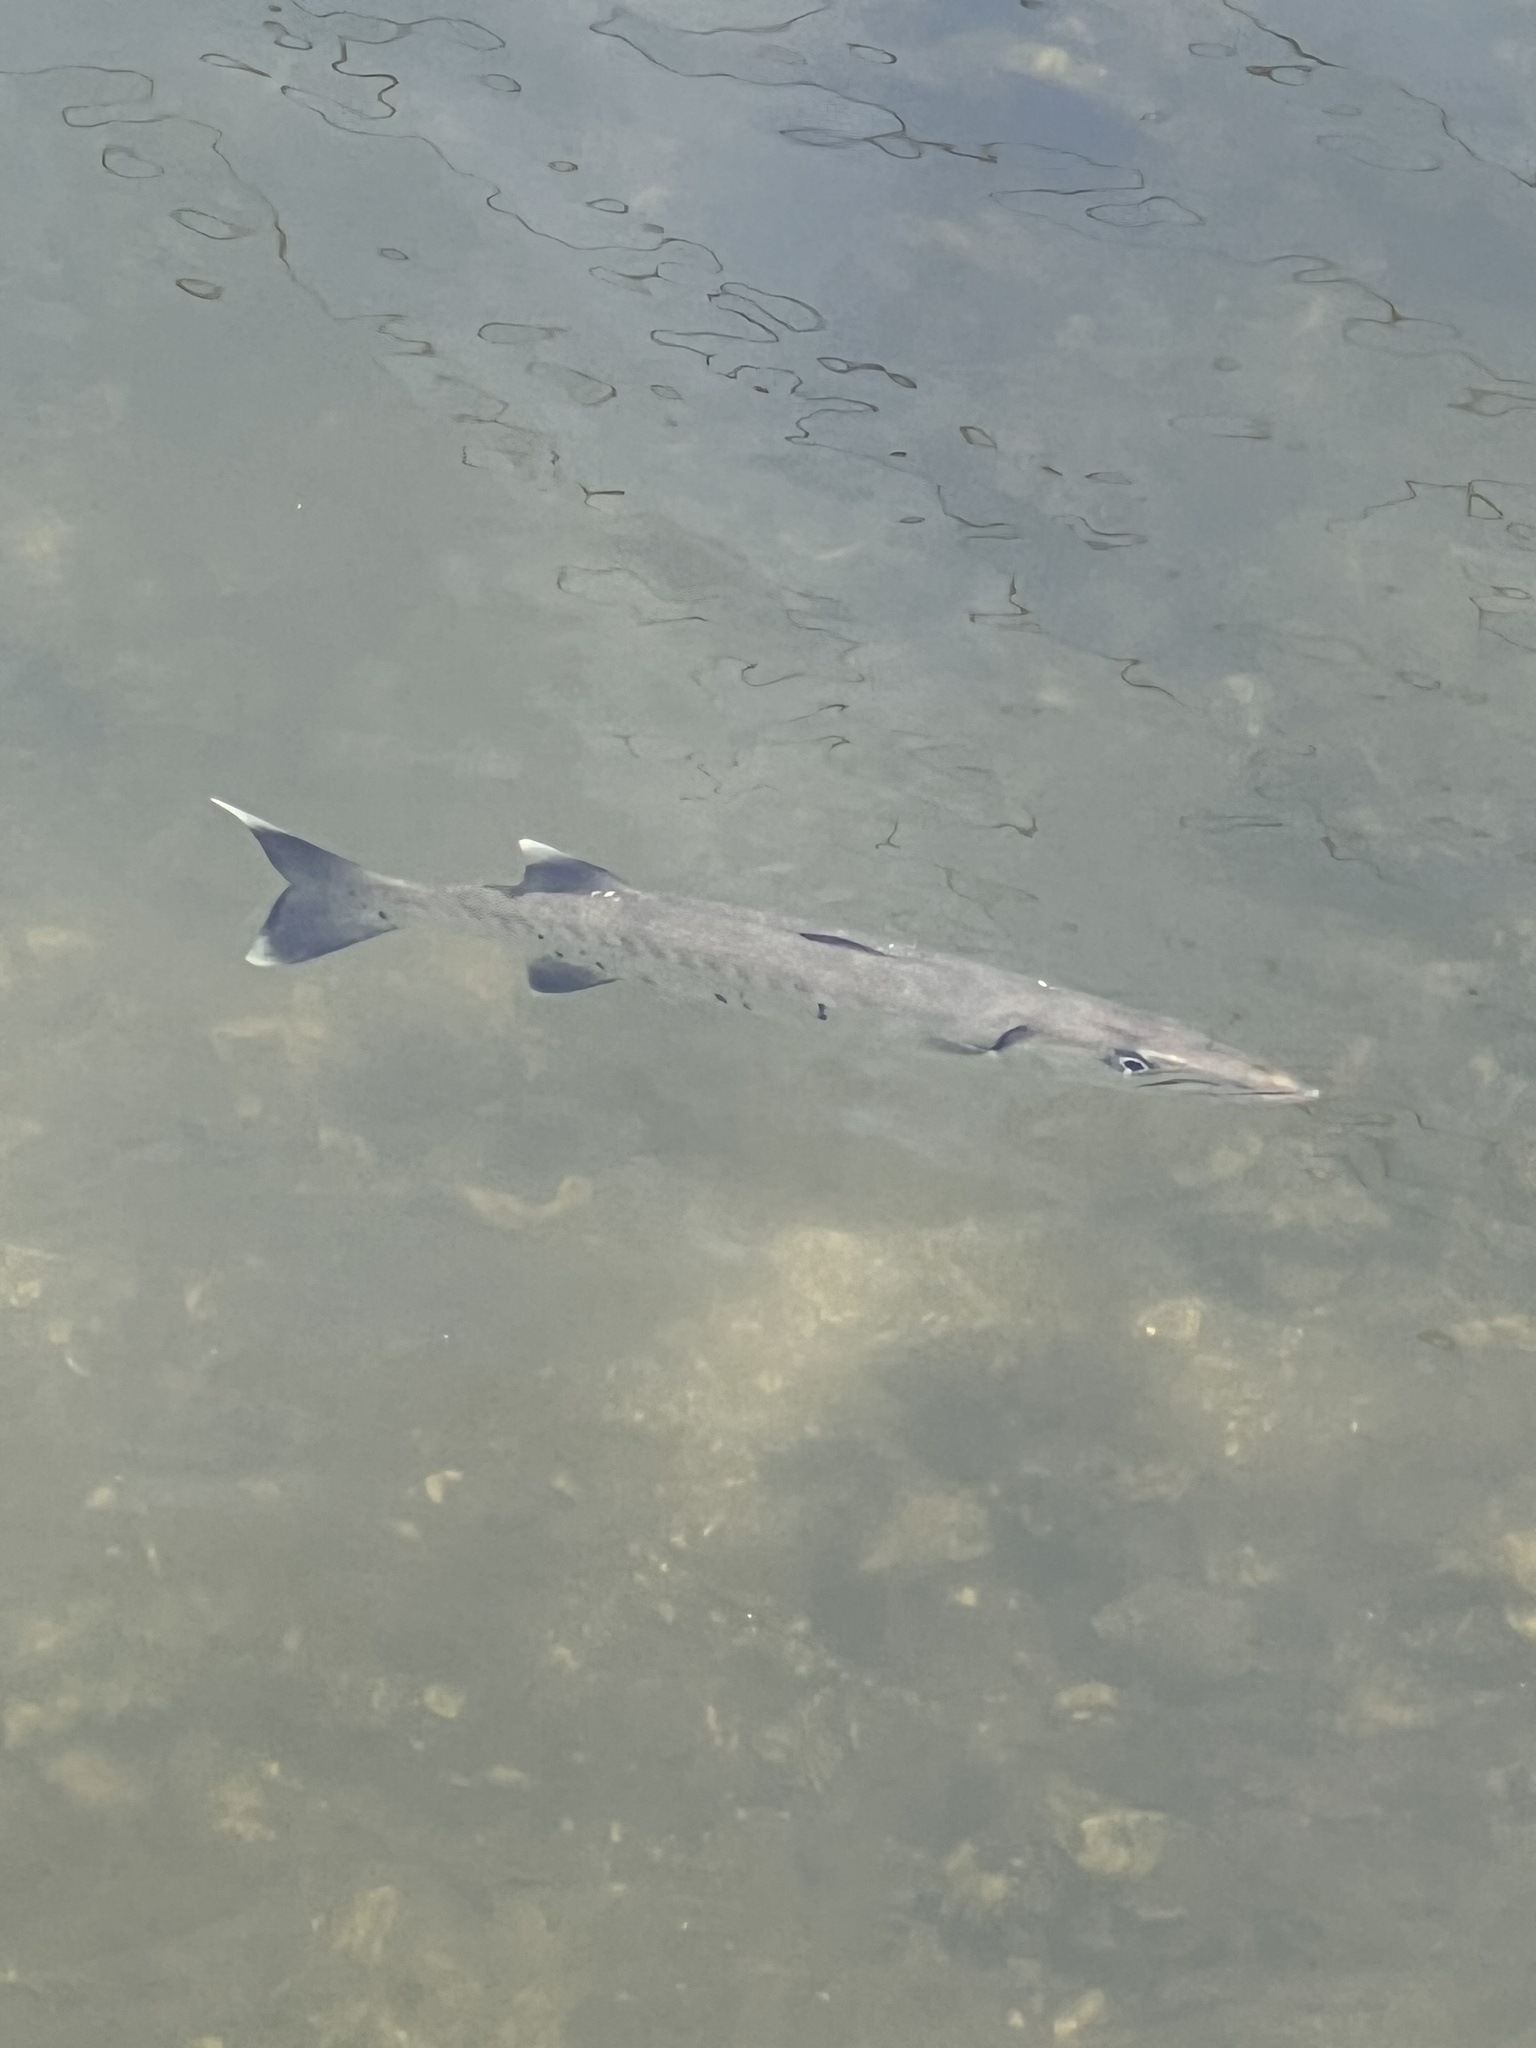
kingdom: Animalia
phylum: Chordata
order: Perciformes
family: Sphyraenidae
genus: Sphyraena
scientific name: Sphyraena barracuda
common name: Great barracuda
